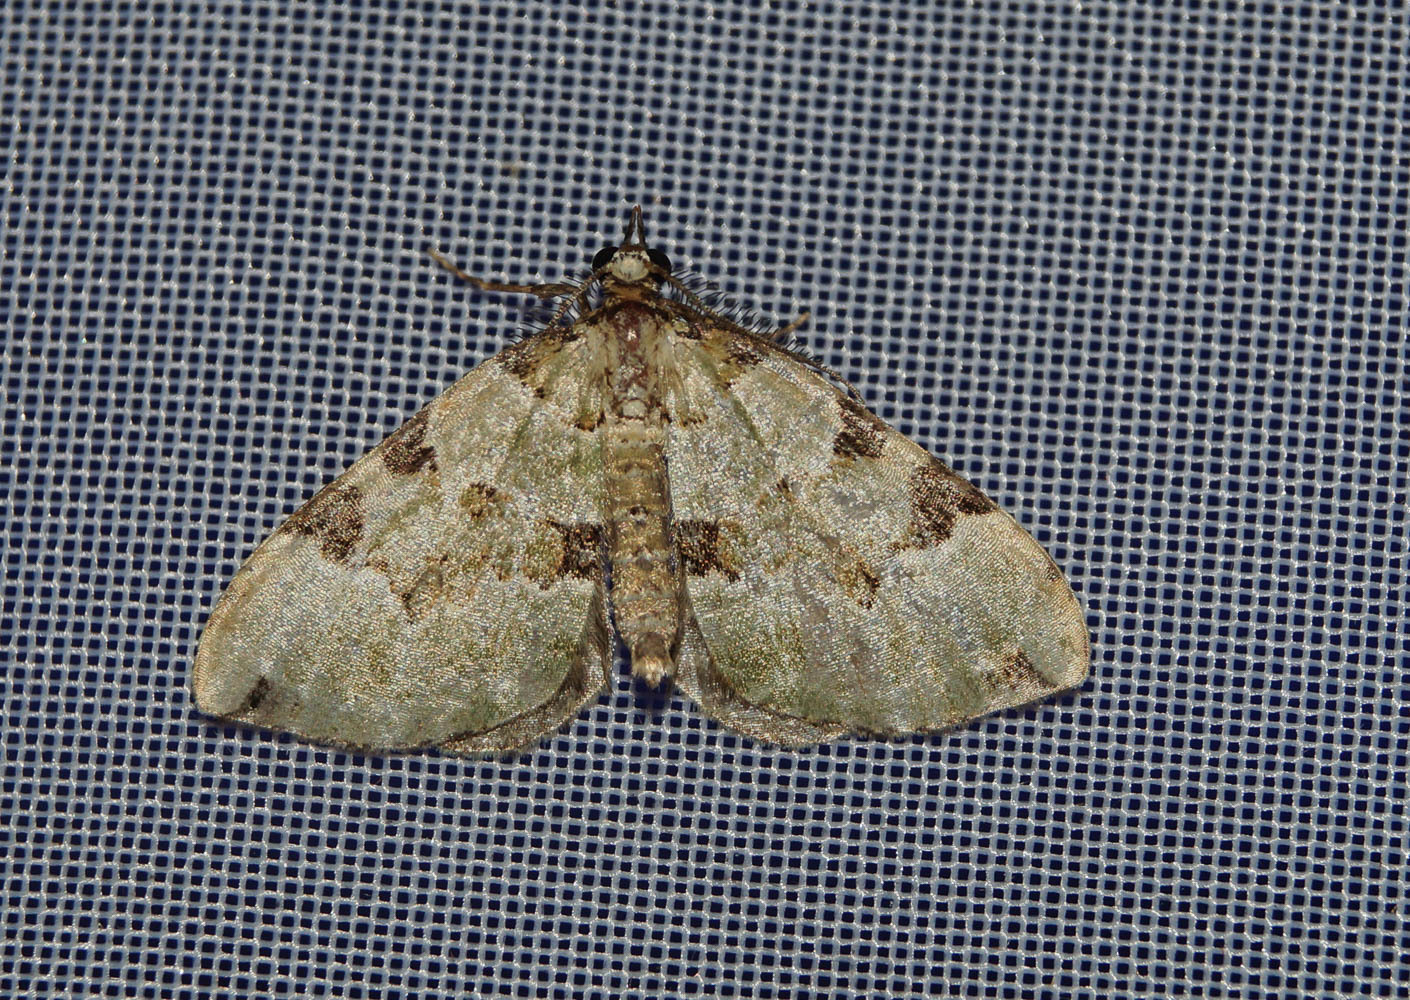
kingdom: Animalia
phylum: Arthropoda
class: Insecta
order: Lepidoptera
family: Geometridae
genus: Colostygia
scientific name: Colostygia pectinataria
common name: Green carpet
